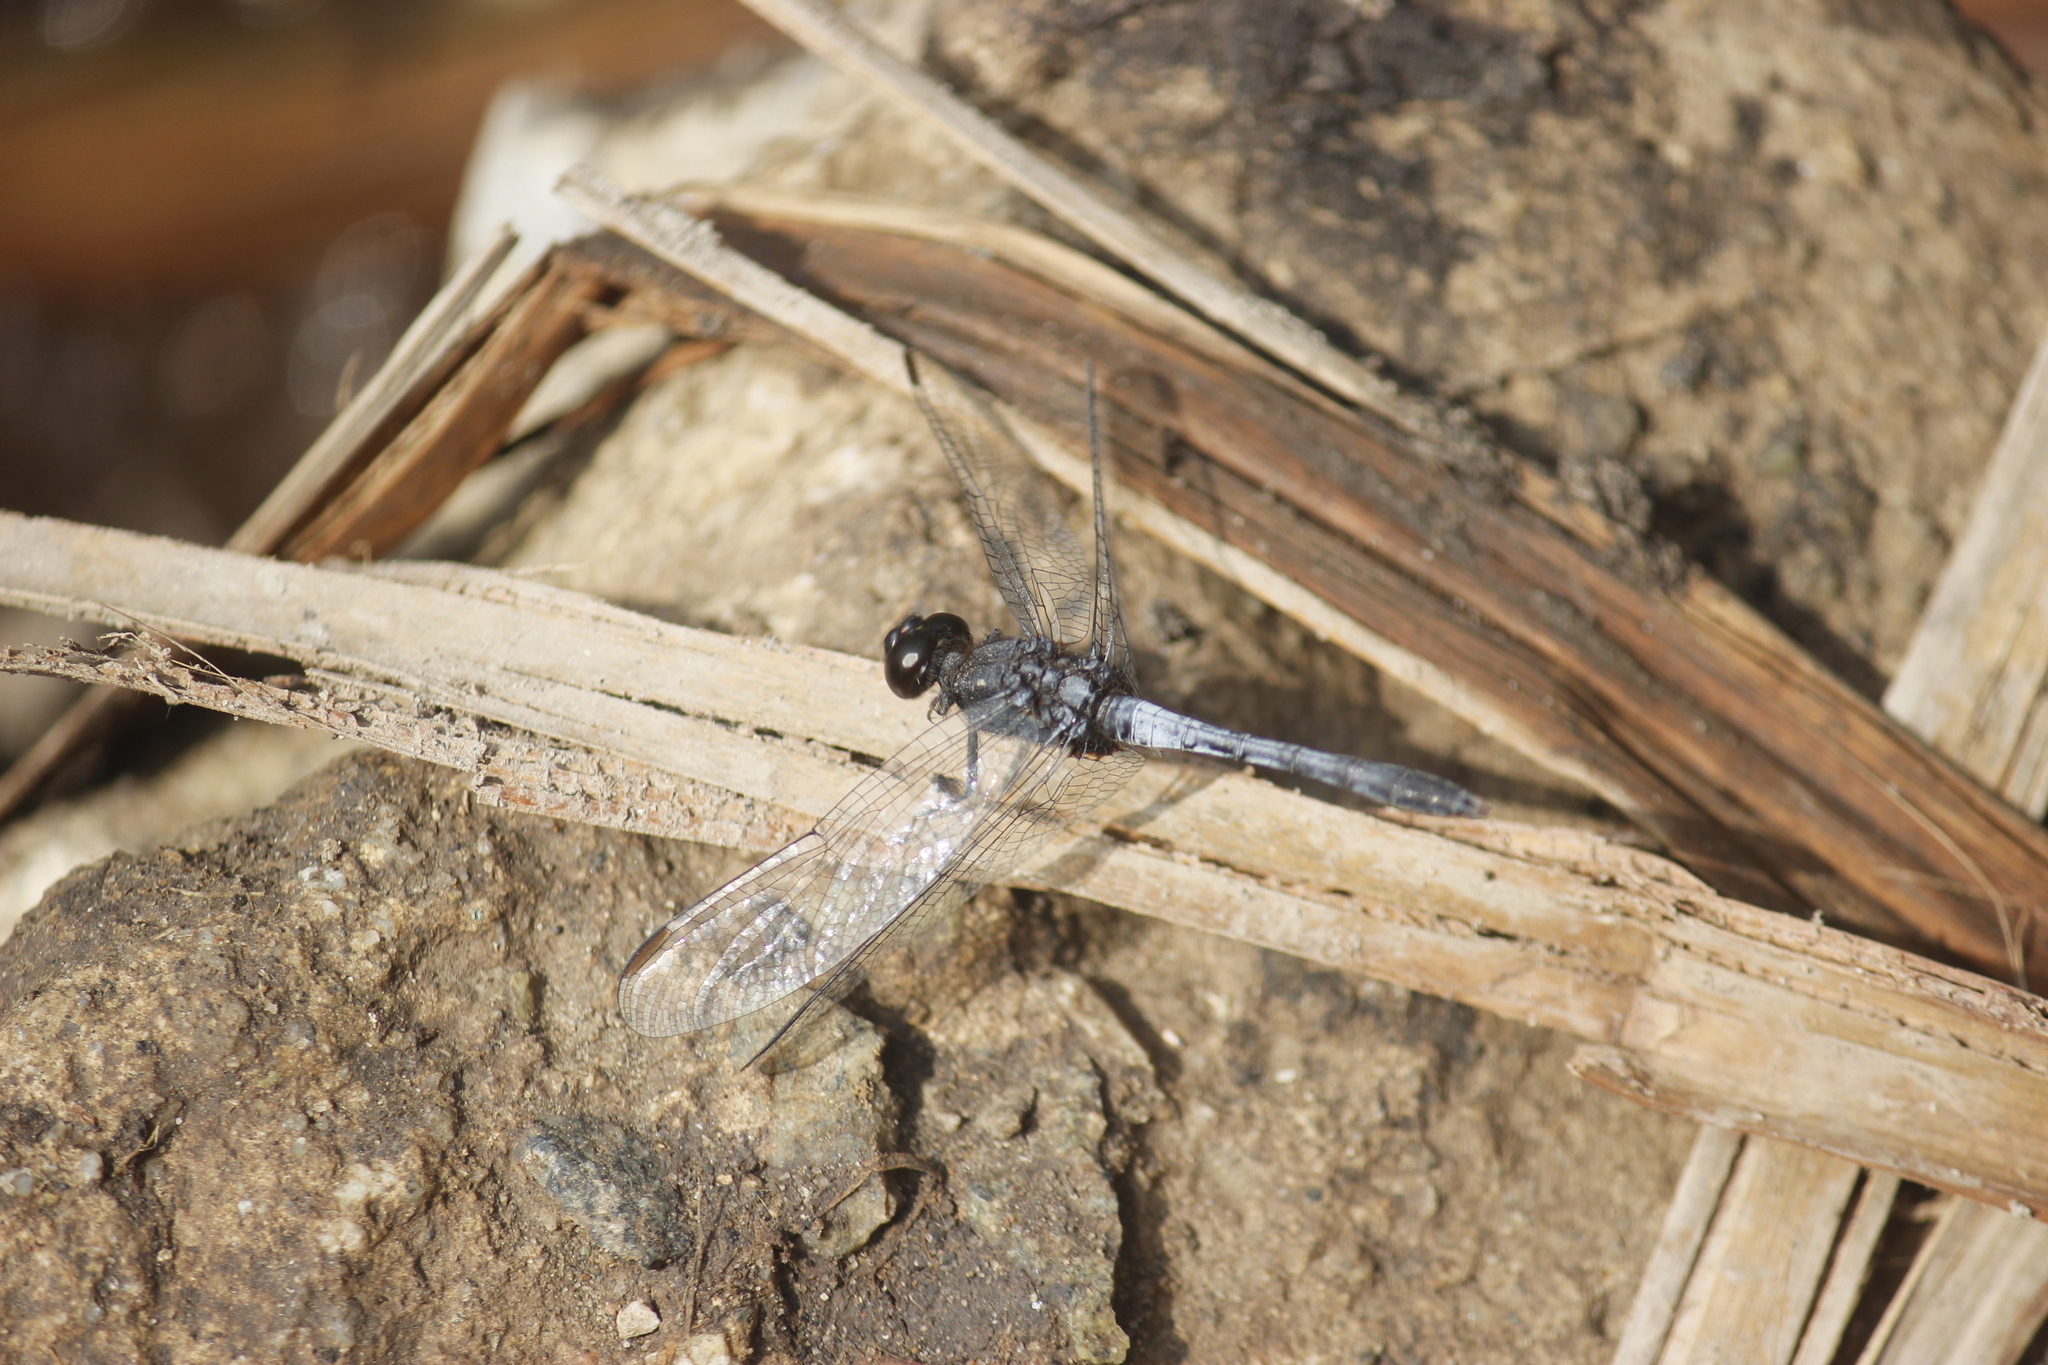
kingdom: Animalia
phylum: Arthropoda
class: Insecta
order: Odonata
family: Libellulidae
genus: Erythrodiplax
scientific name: Erythrodiplax cleopatra
